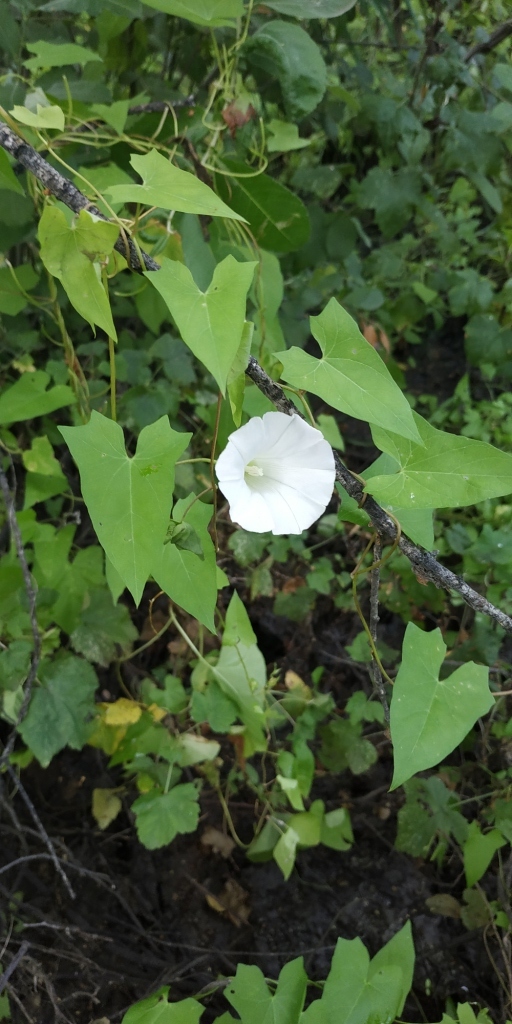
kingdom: Plantae
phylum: Tracheophyta
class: Magnoliopsida
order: Solanales
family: Convolvulaceae
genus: Calystegia
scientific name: Calystegia sepium
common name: Hedge bindweed
